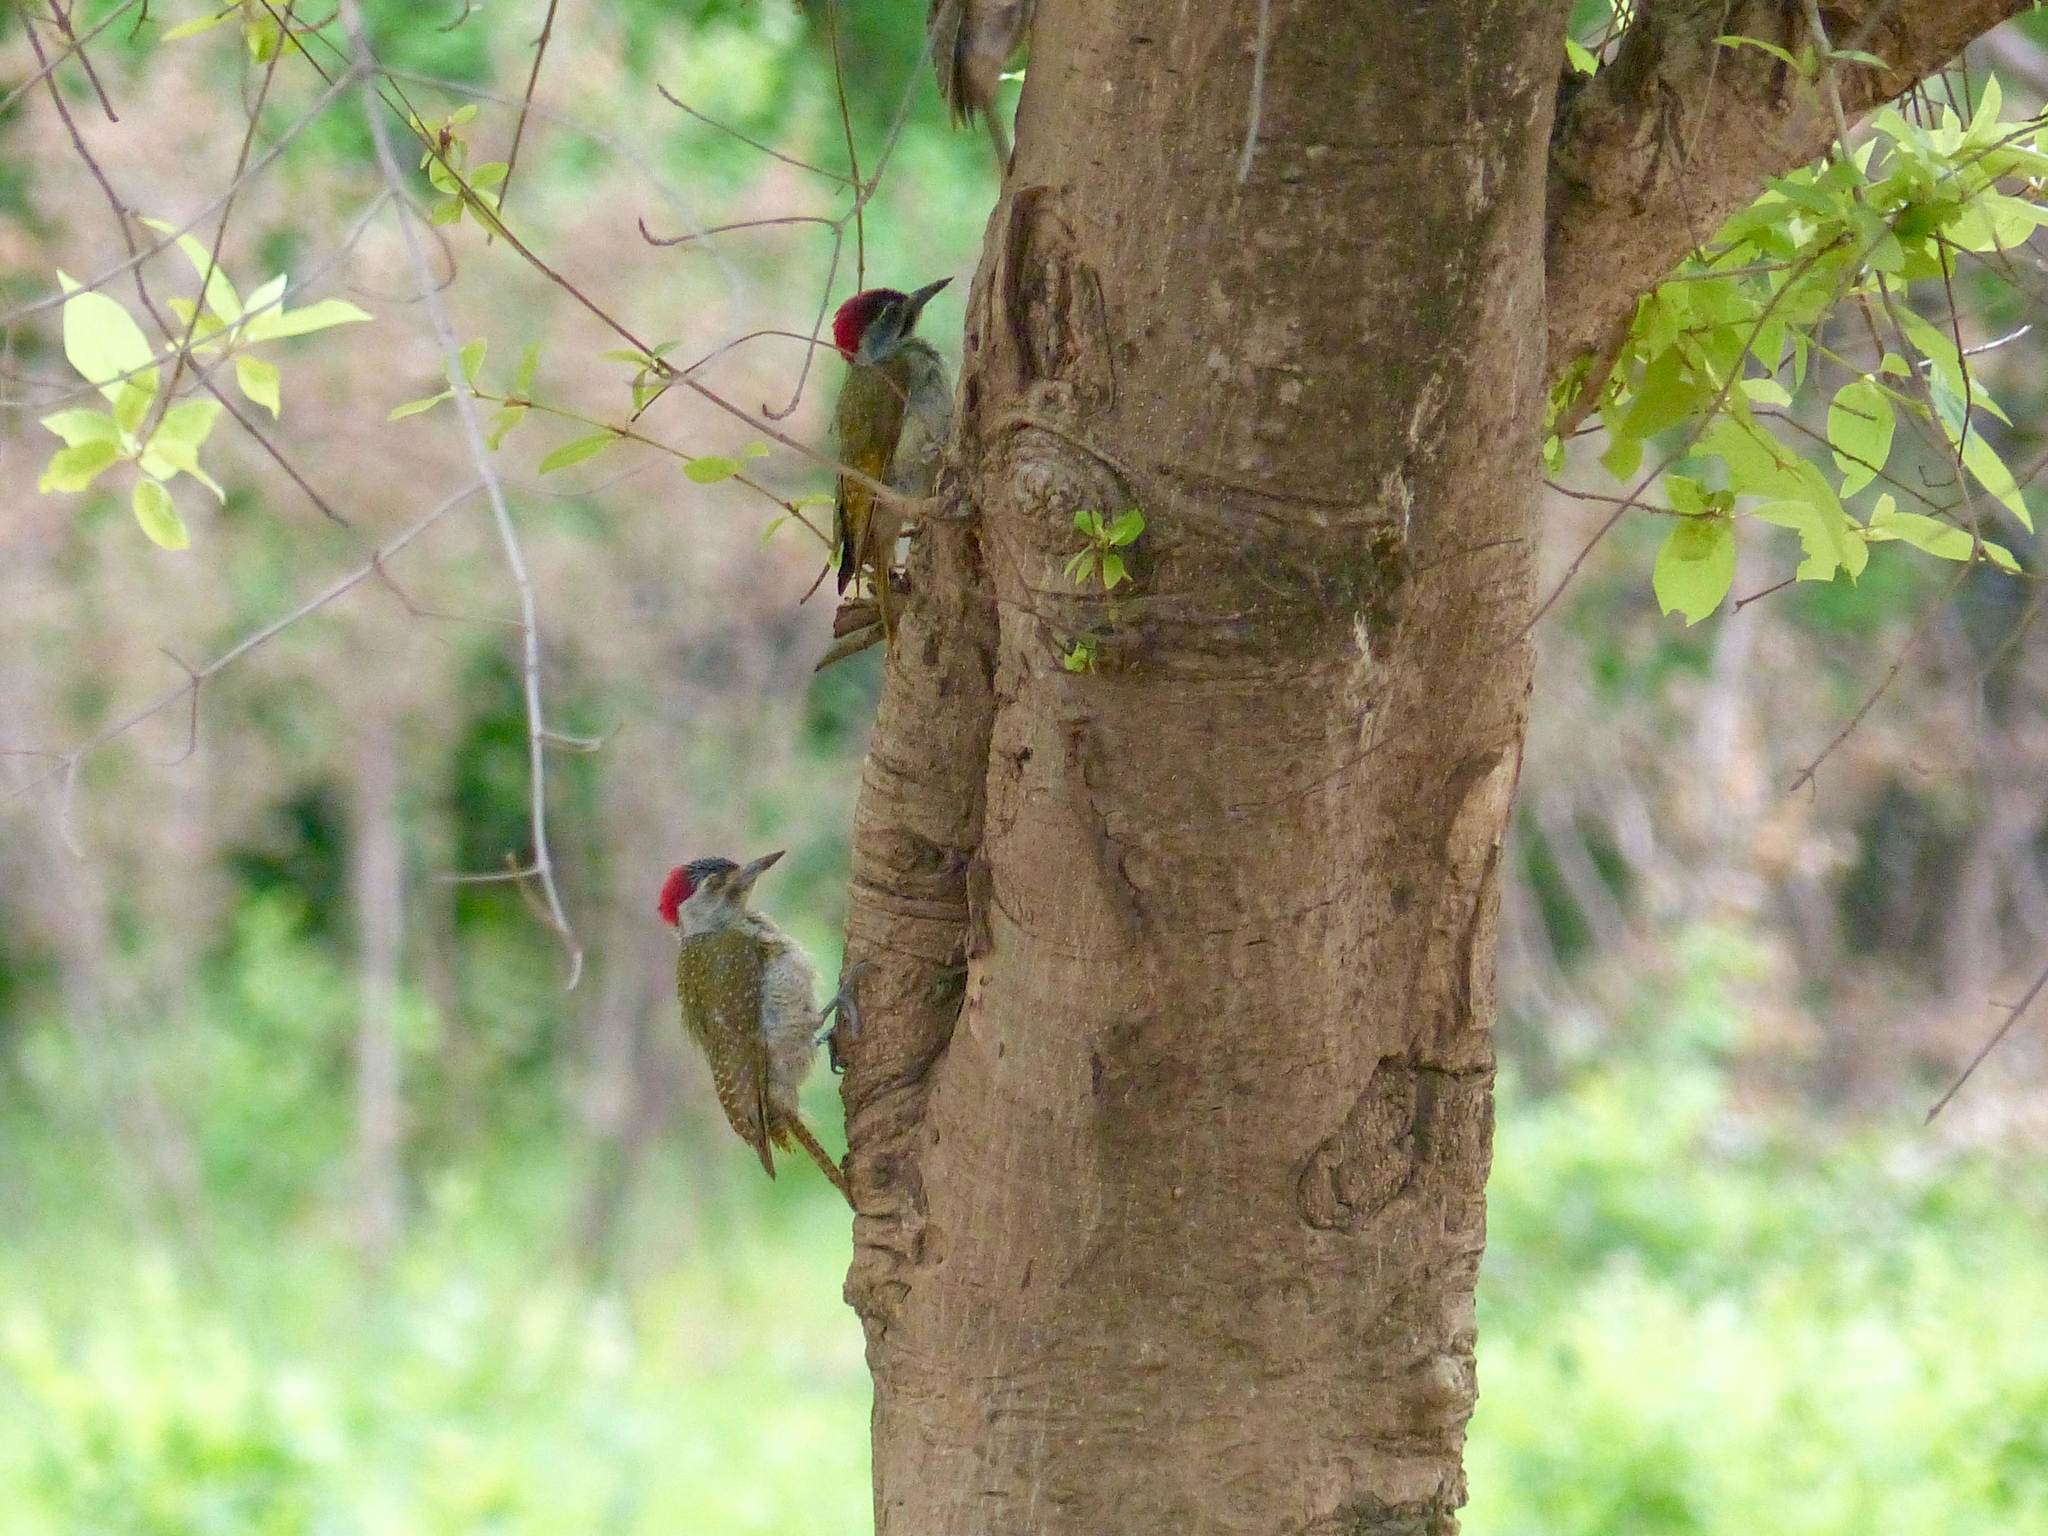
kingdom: Animalia
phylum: Chordata
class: Aves
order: Piciformes
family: Picidae
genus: Campethera
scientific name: Campethera punctuligera
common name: Fine-spotted woodpecker
